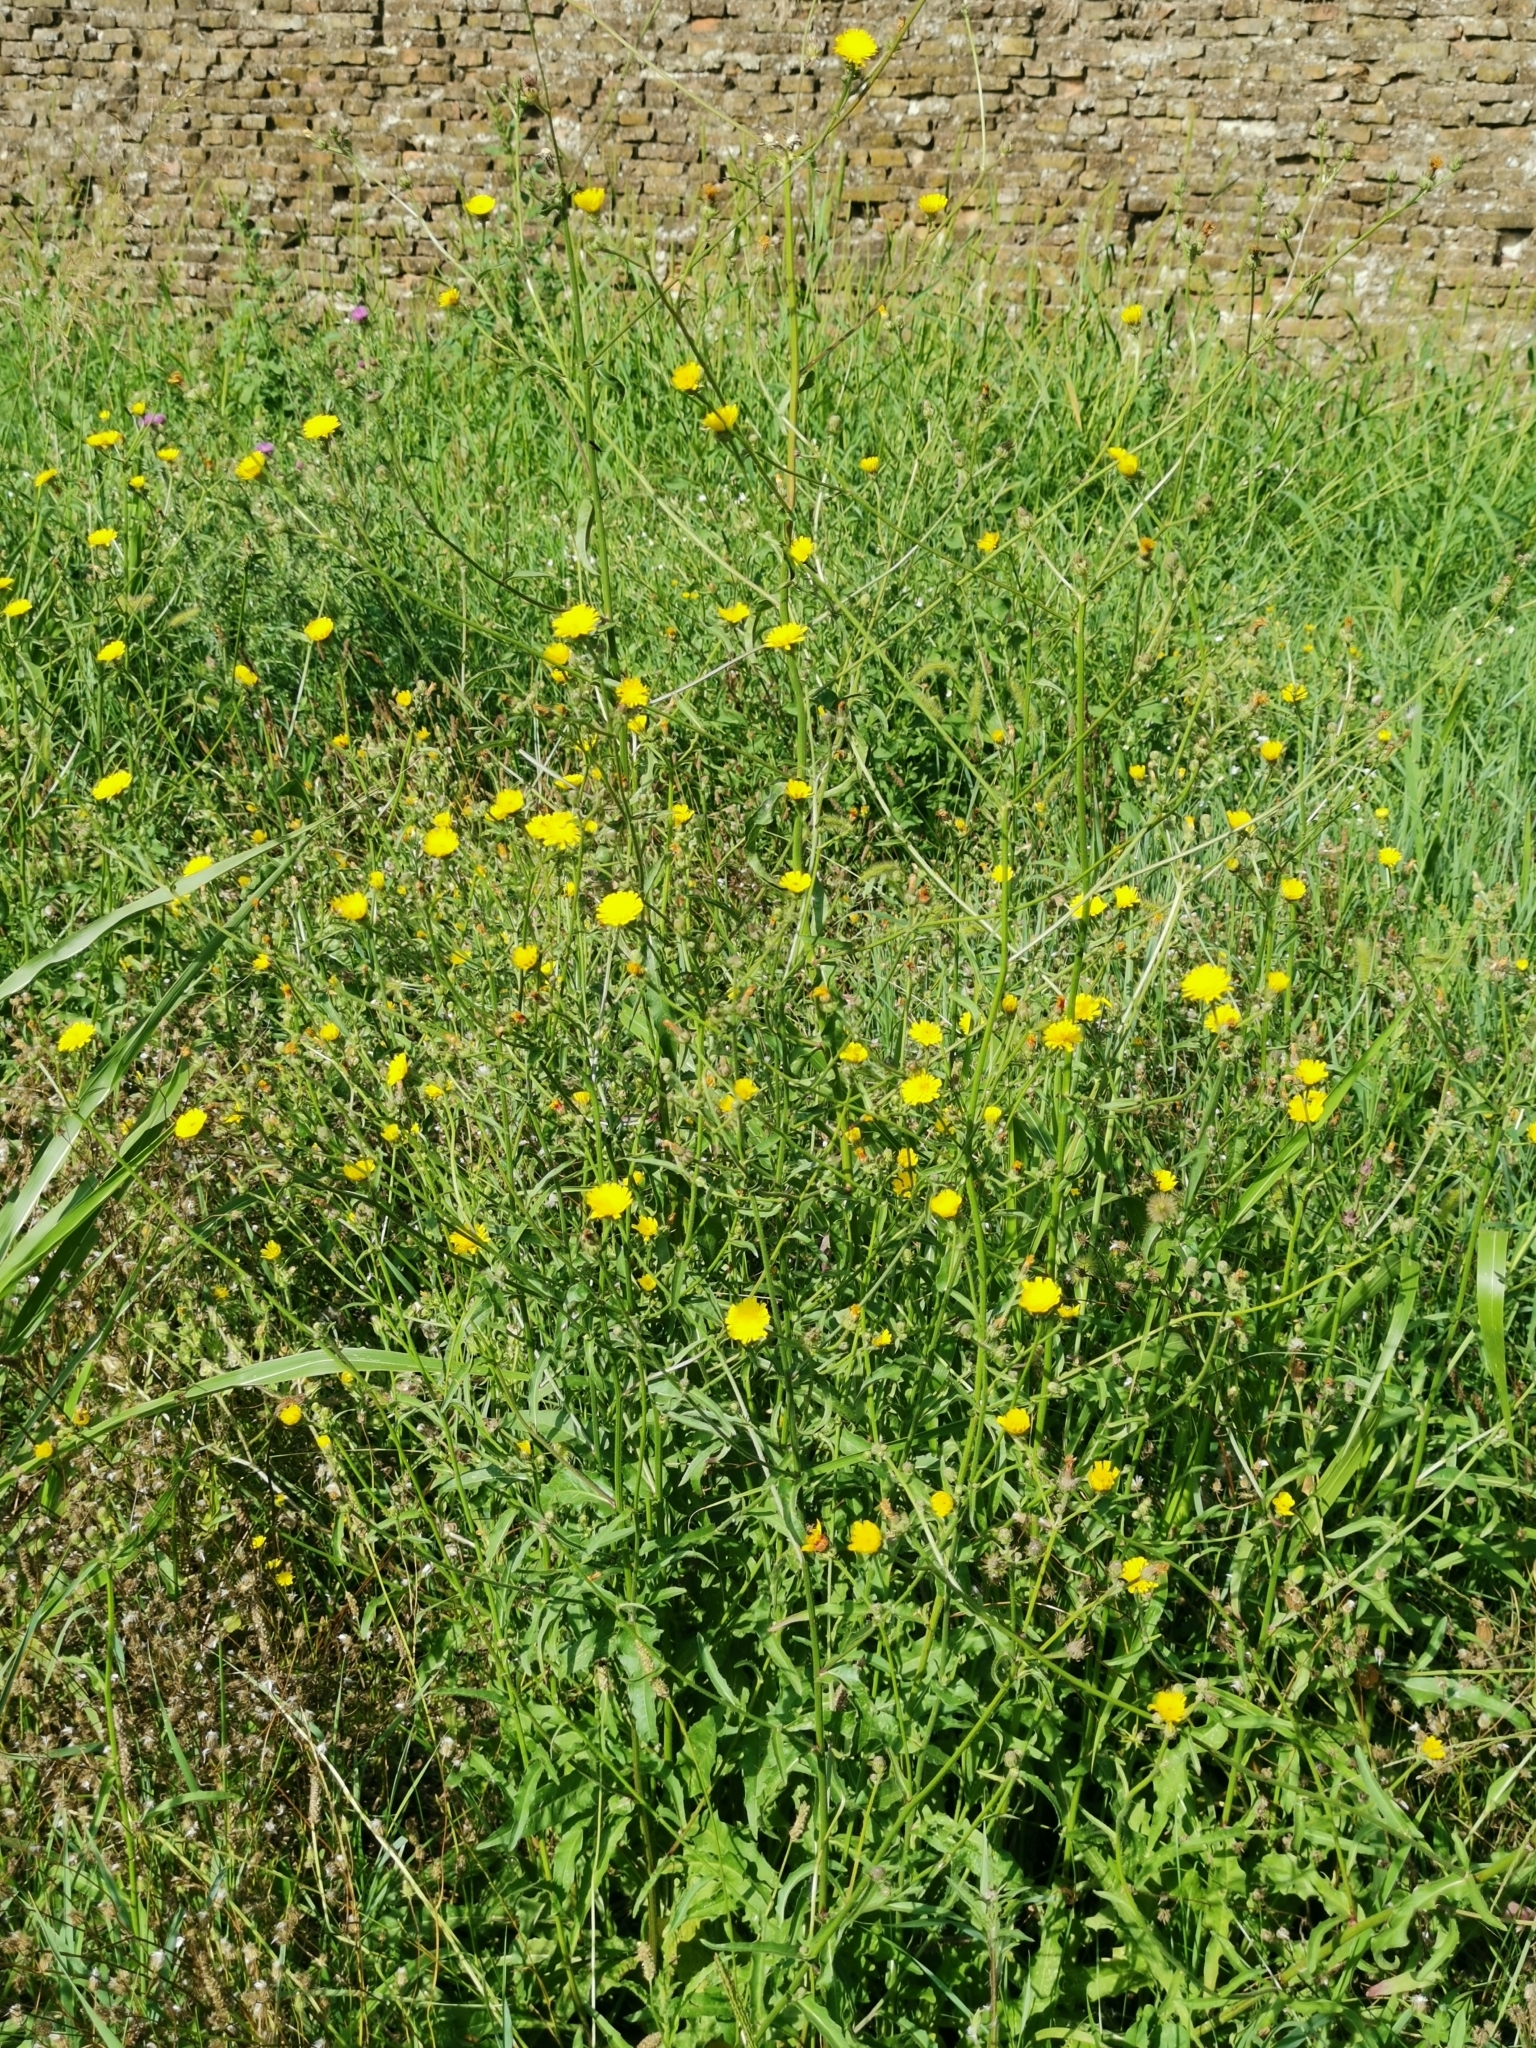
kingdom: Plantae
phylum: Tracheophyta
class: Magnoliopsida
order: Asterales
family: Asteraceae
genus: Picris
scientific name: Picris hieracioides
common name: Hawkweed oxtongue
